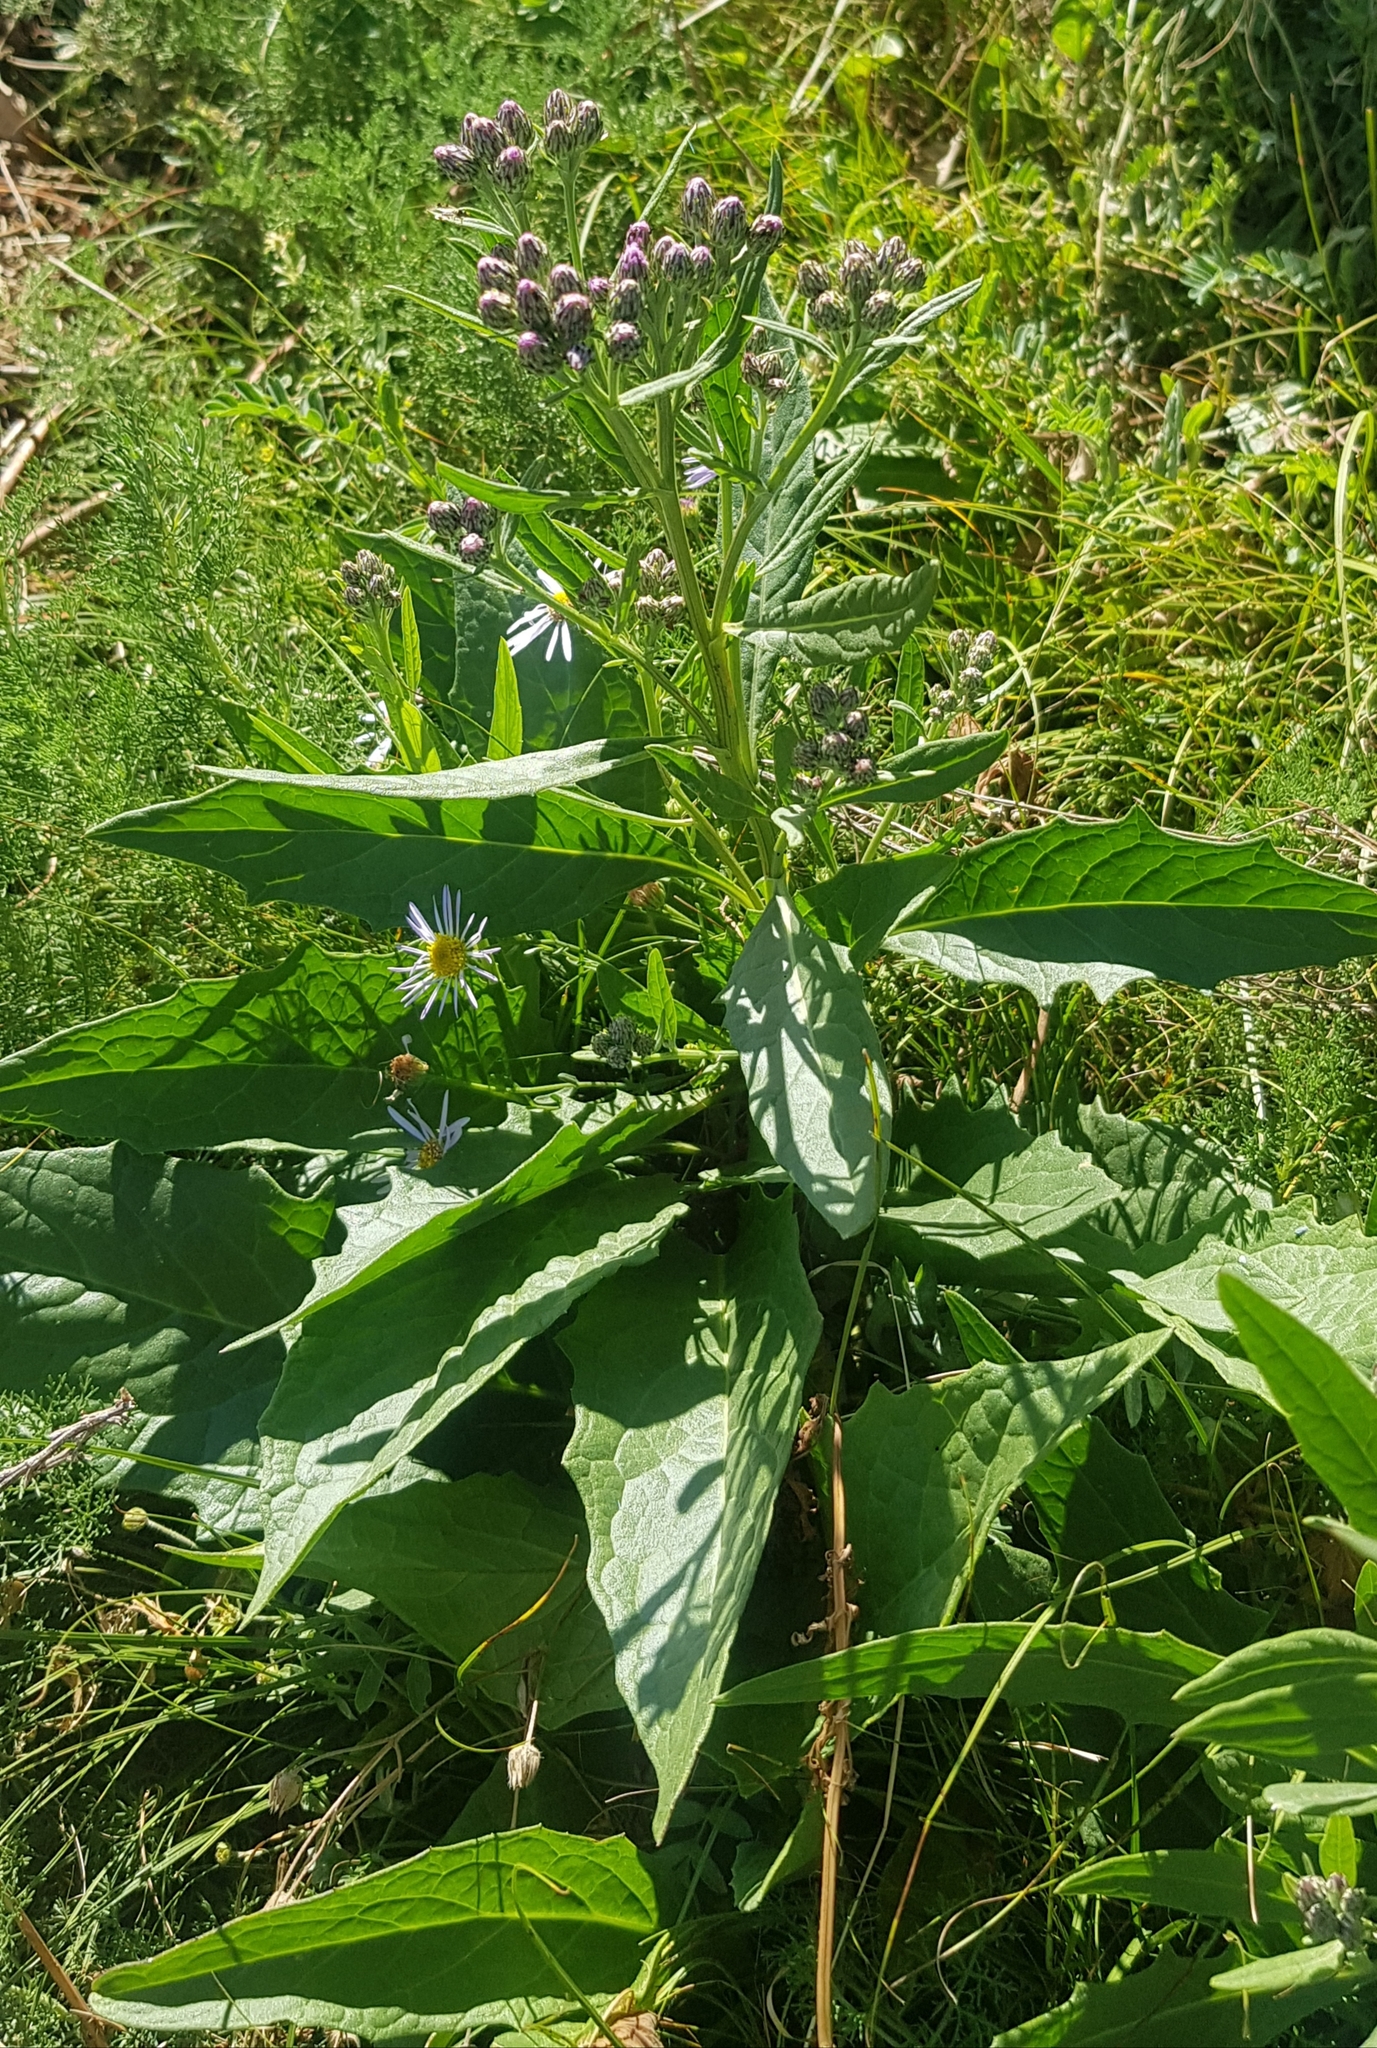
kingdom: Plantae
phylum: Tracheophyta
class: Magnoliopsida
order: Asterales
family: Asteraceae
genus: Saussurea
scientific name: Saussurea amara
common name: Alberta sawwort
